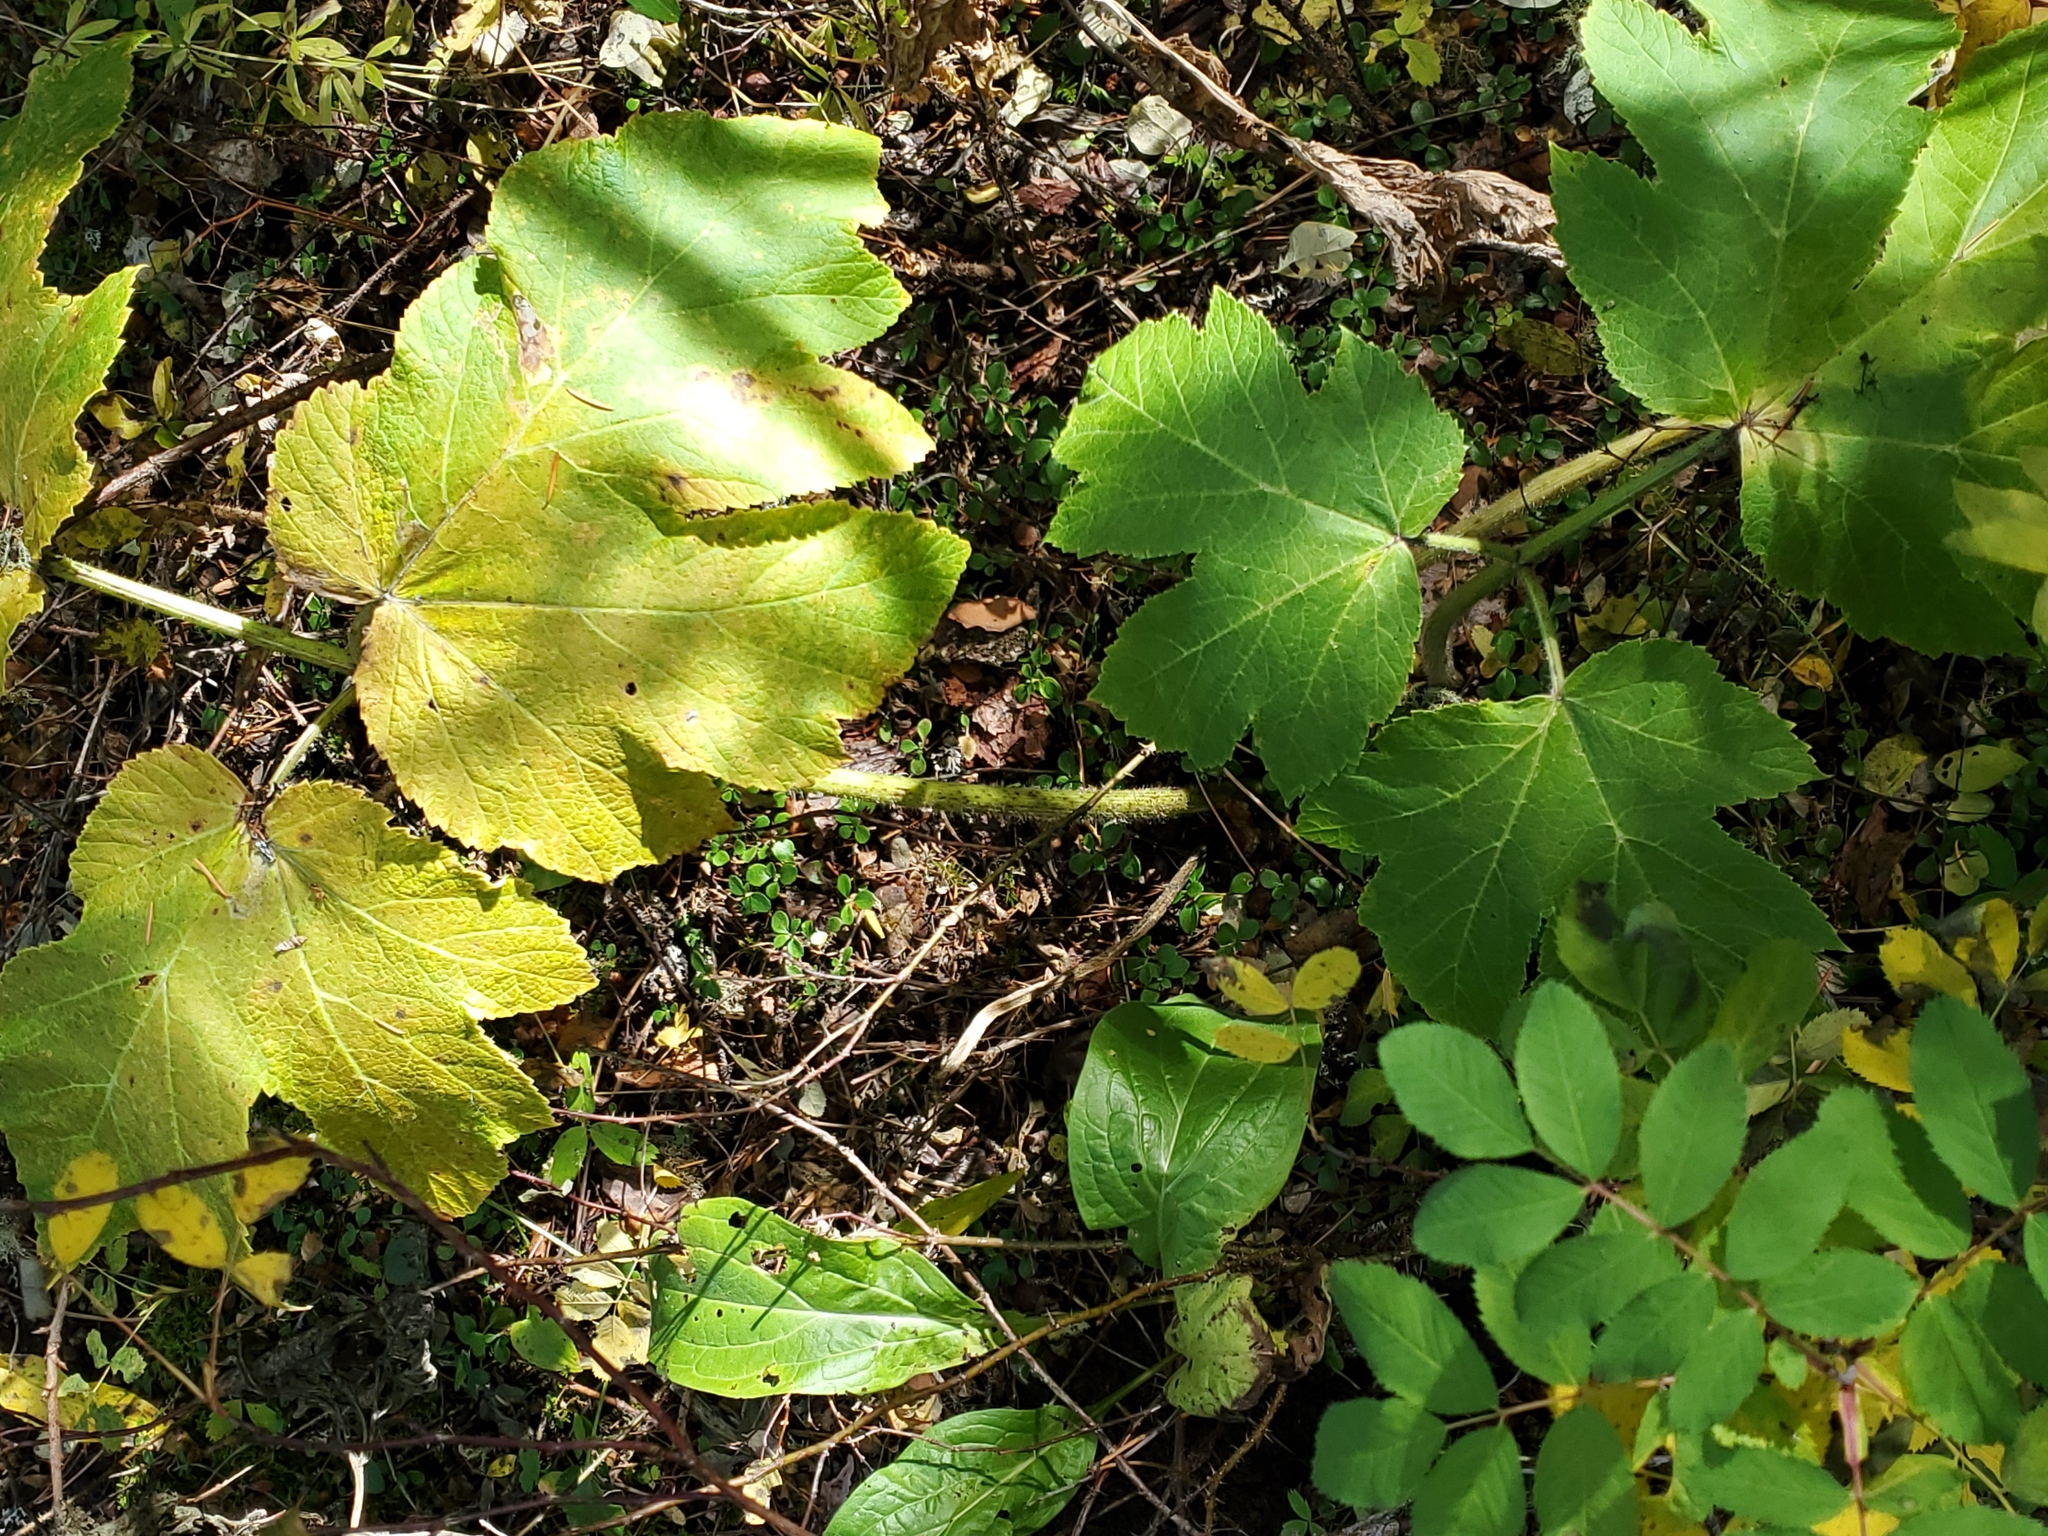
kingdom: Plantae
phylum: Tracheophyta
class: Magnoliopsida
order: Apiales
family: Apiaceae
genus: Heracleum
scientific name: Heracleum maximum
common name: American cow parsnip
